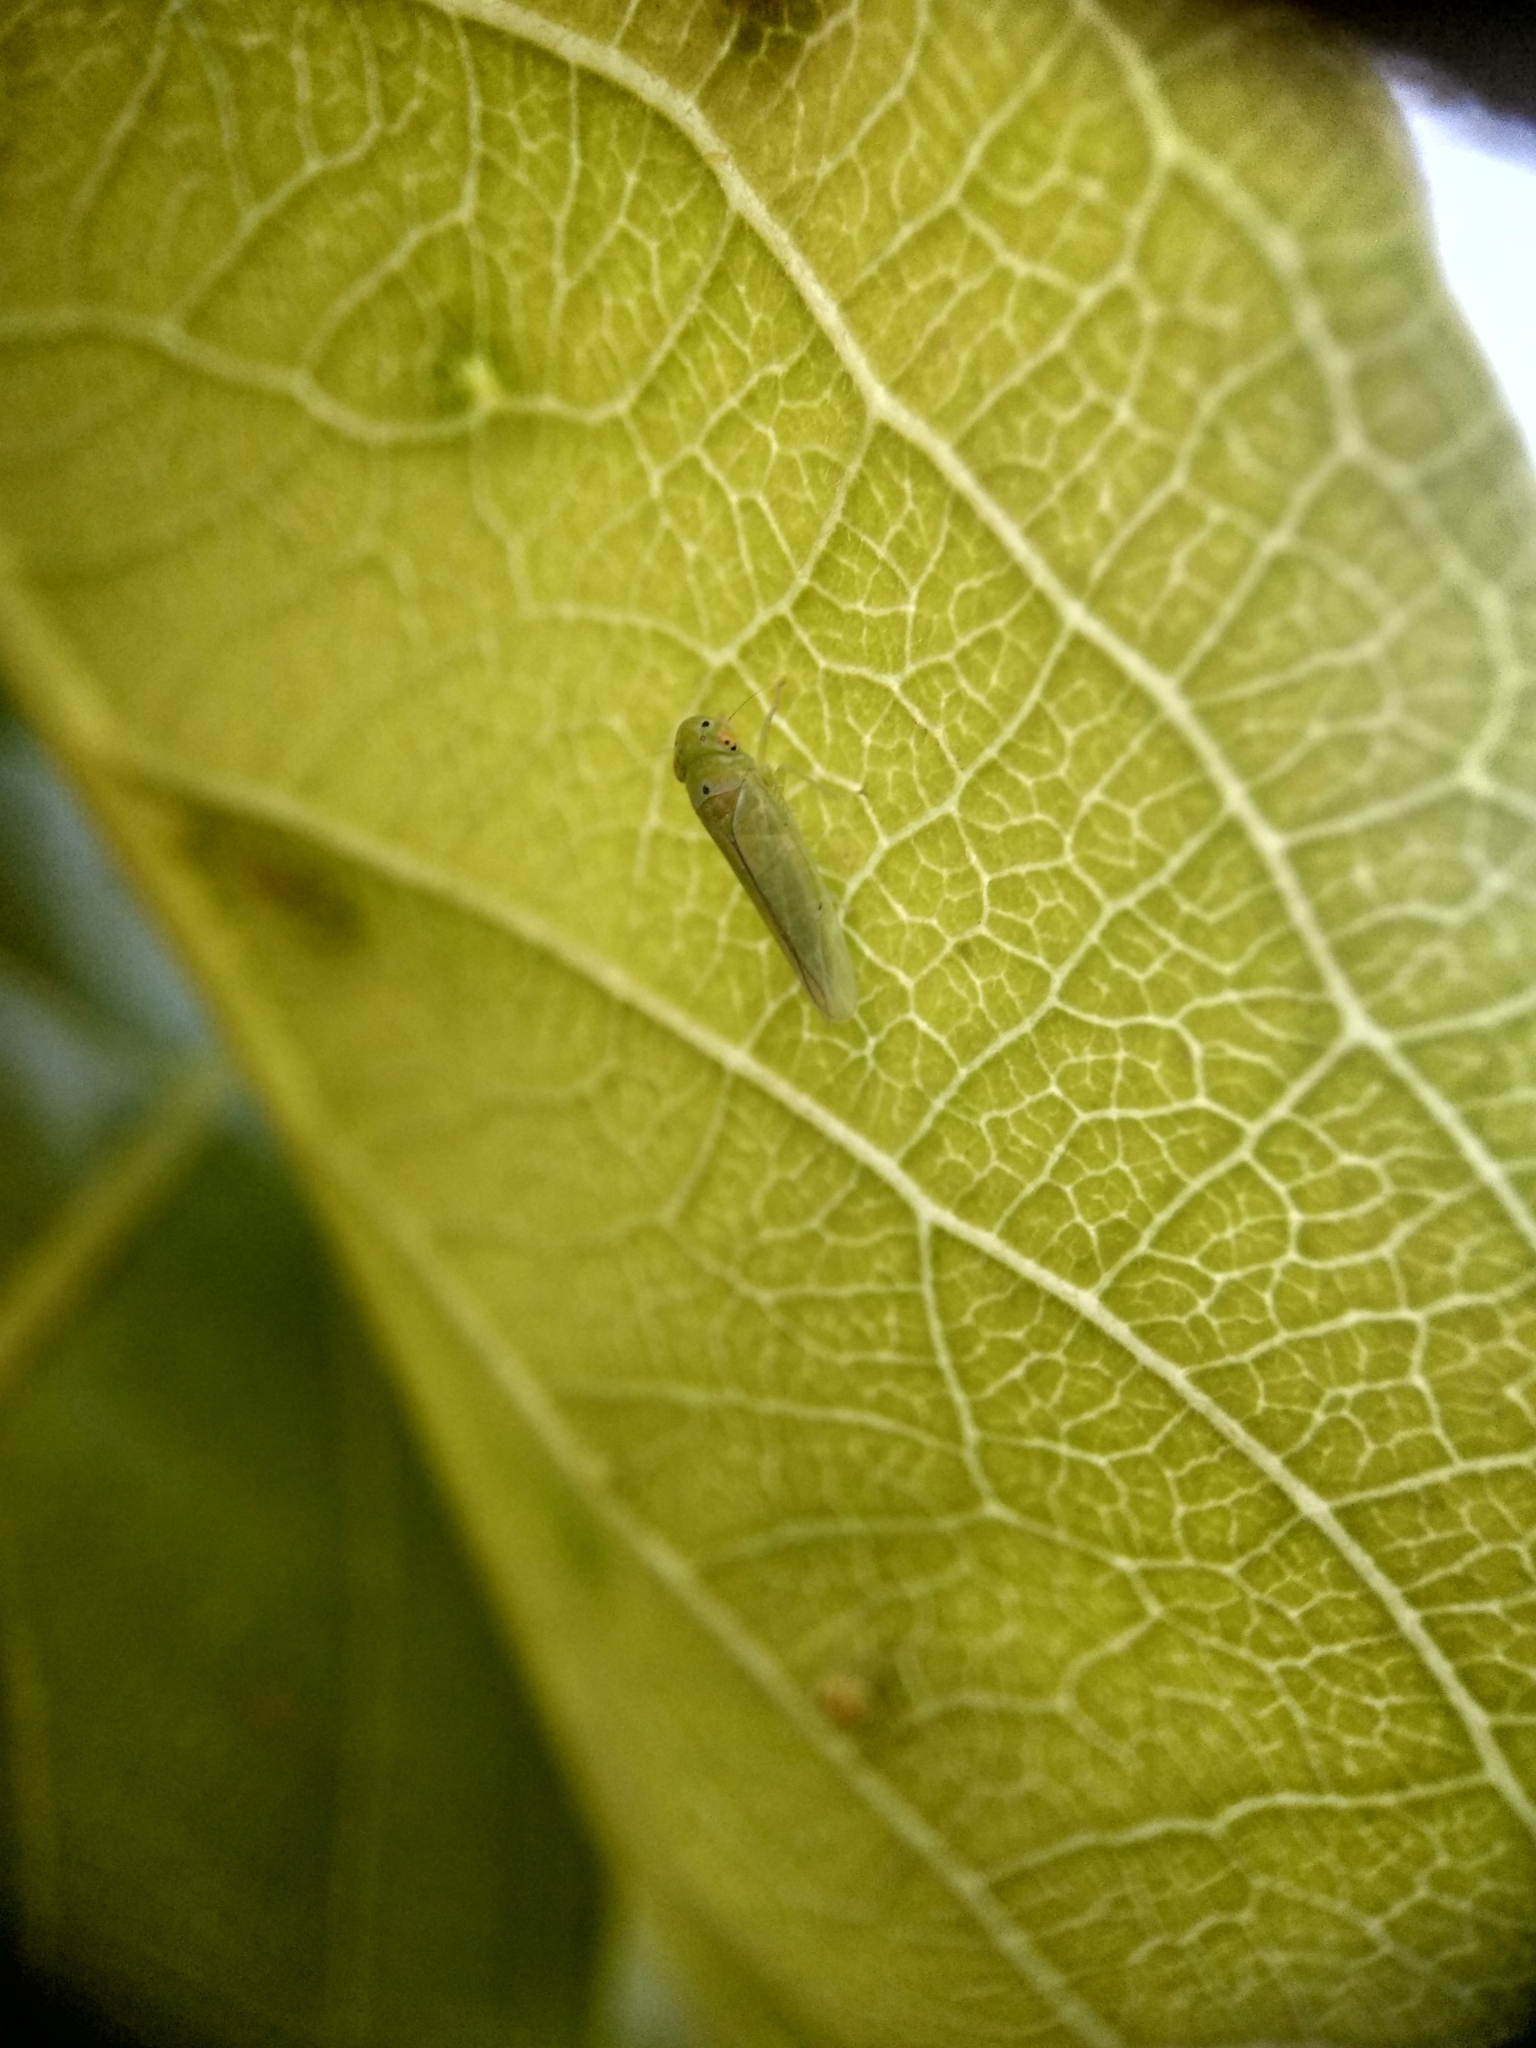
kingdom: Animalia
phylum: Arthropoda
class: Insecta
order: Hemiptera
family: Cicadellidae
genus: Kolla
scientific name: Kolla ceylonica
